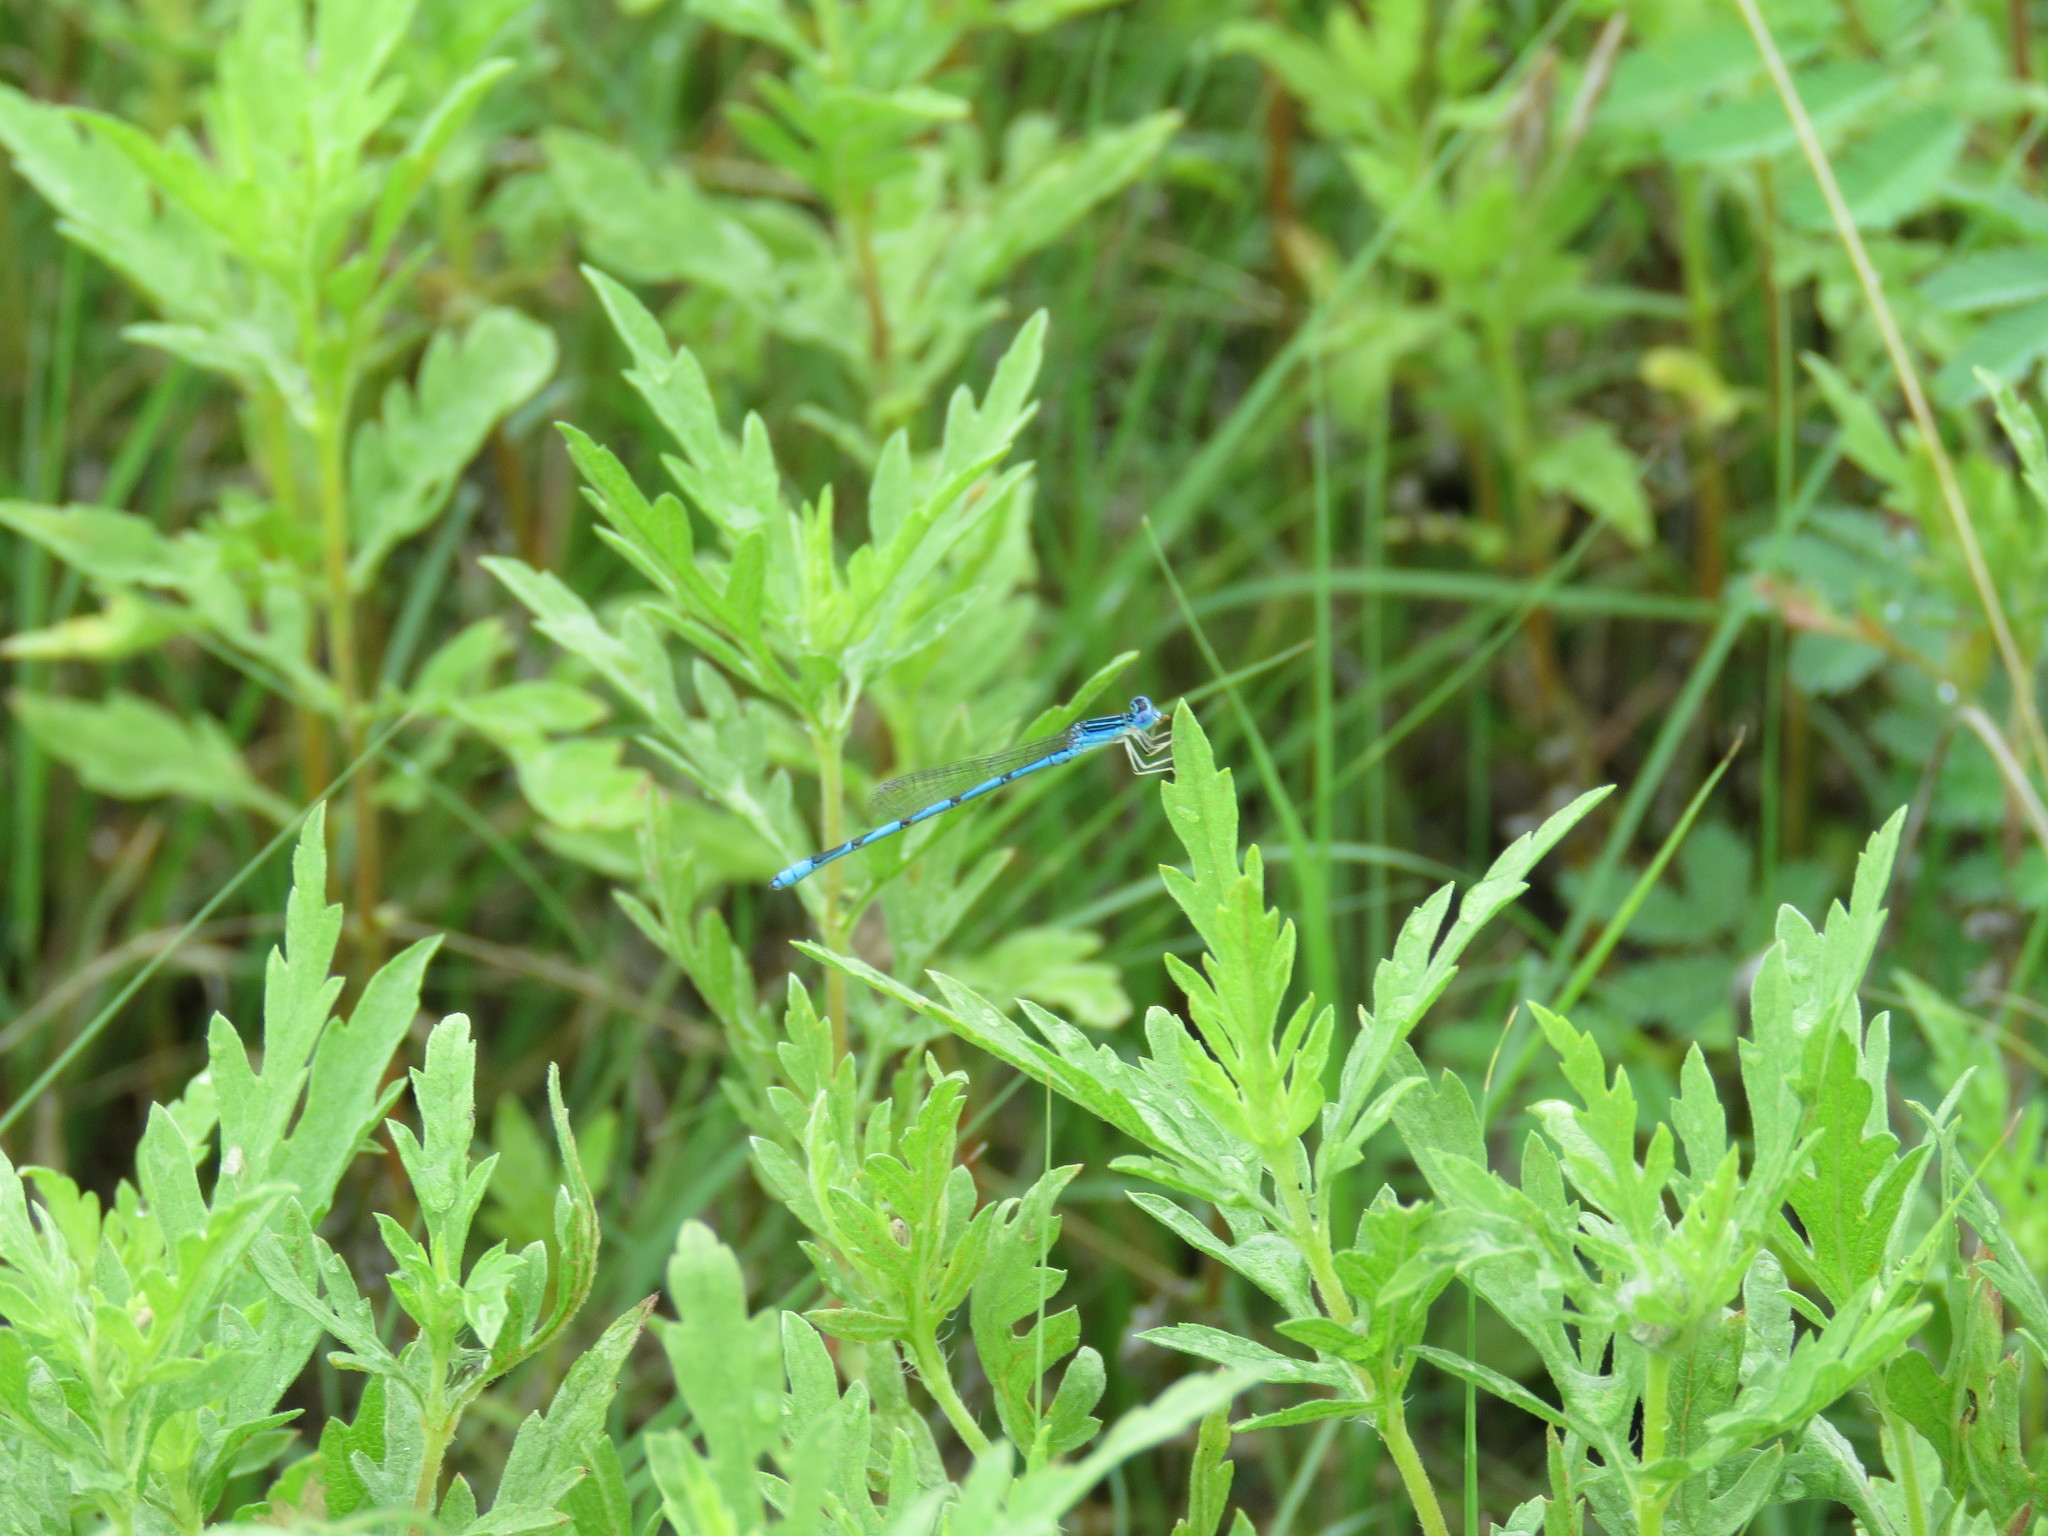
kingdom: Animalia
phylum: Arthropoda
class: Insecta
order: Odonata
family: Coenagrionidae
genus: Enallagma
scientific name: Enallagma basidens
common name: Double-striped bluet
